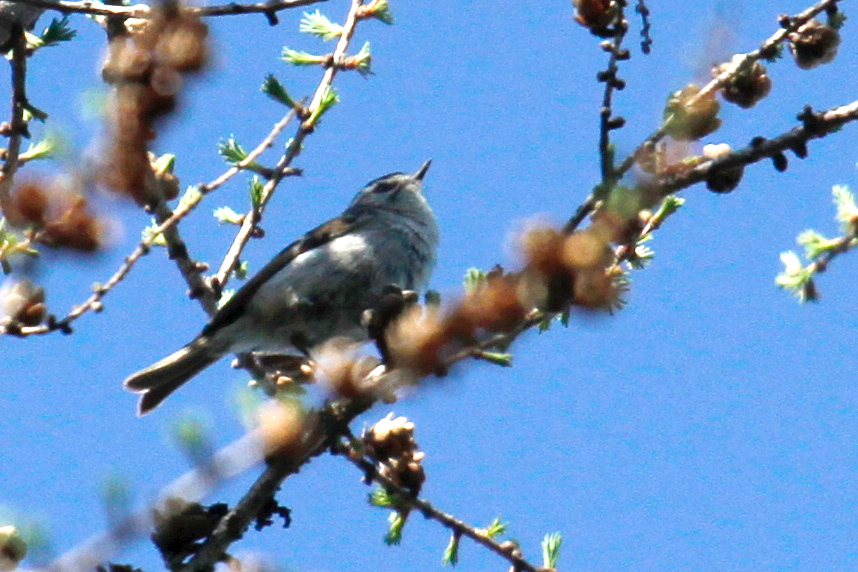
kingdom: Animalia
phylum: Chordata
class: Aves
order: Passeriformes
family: Regulidae
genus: Regulus
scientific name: Regulus satrapa
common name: Golden-crowned kinglet
